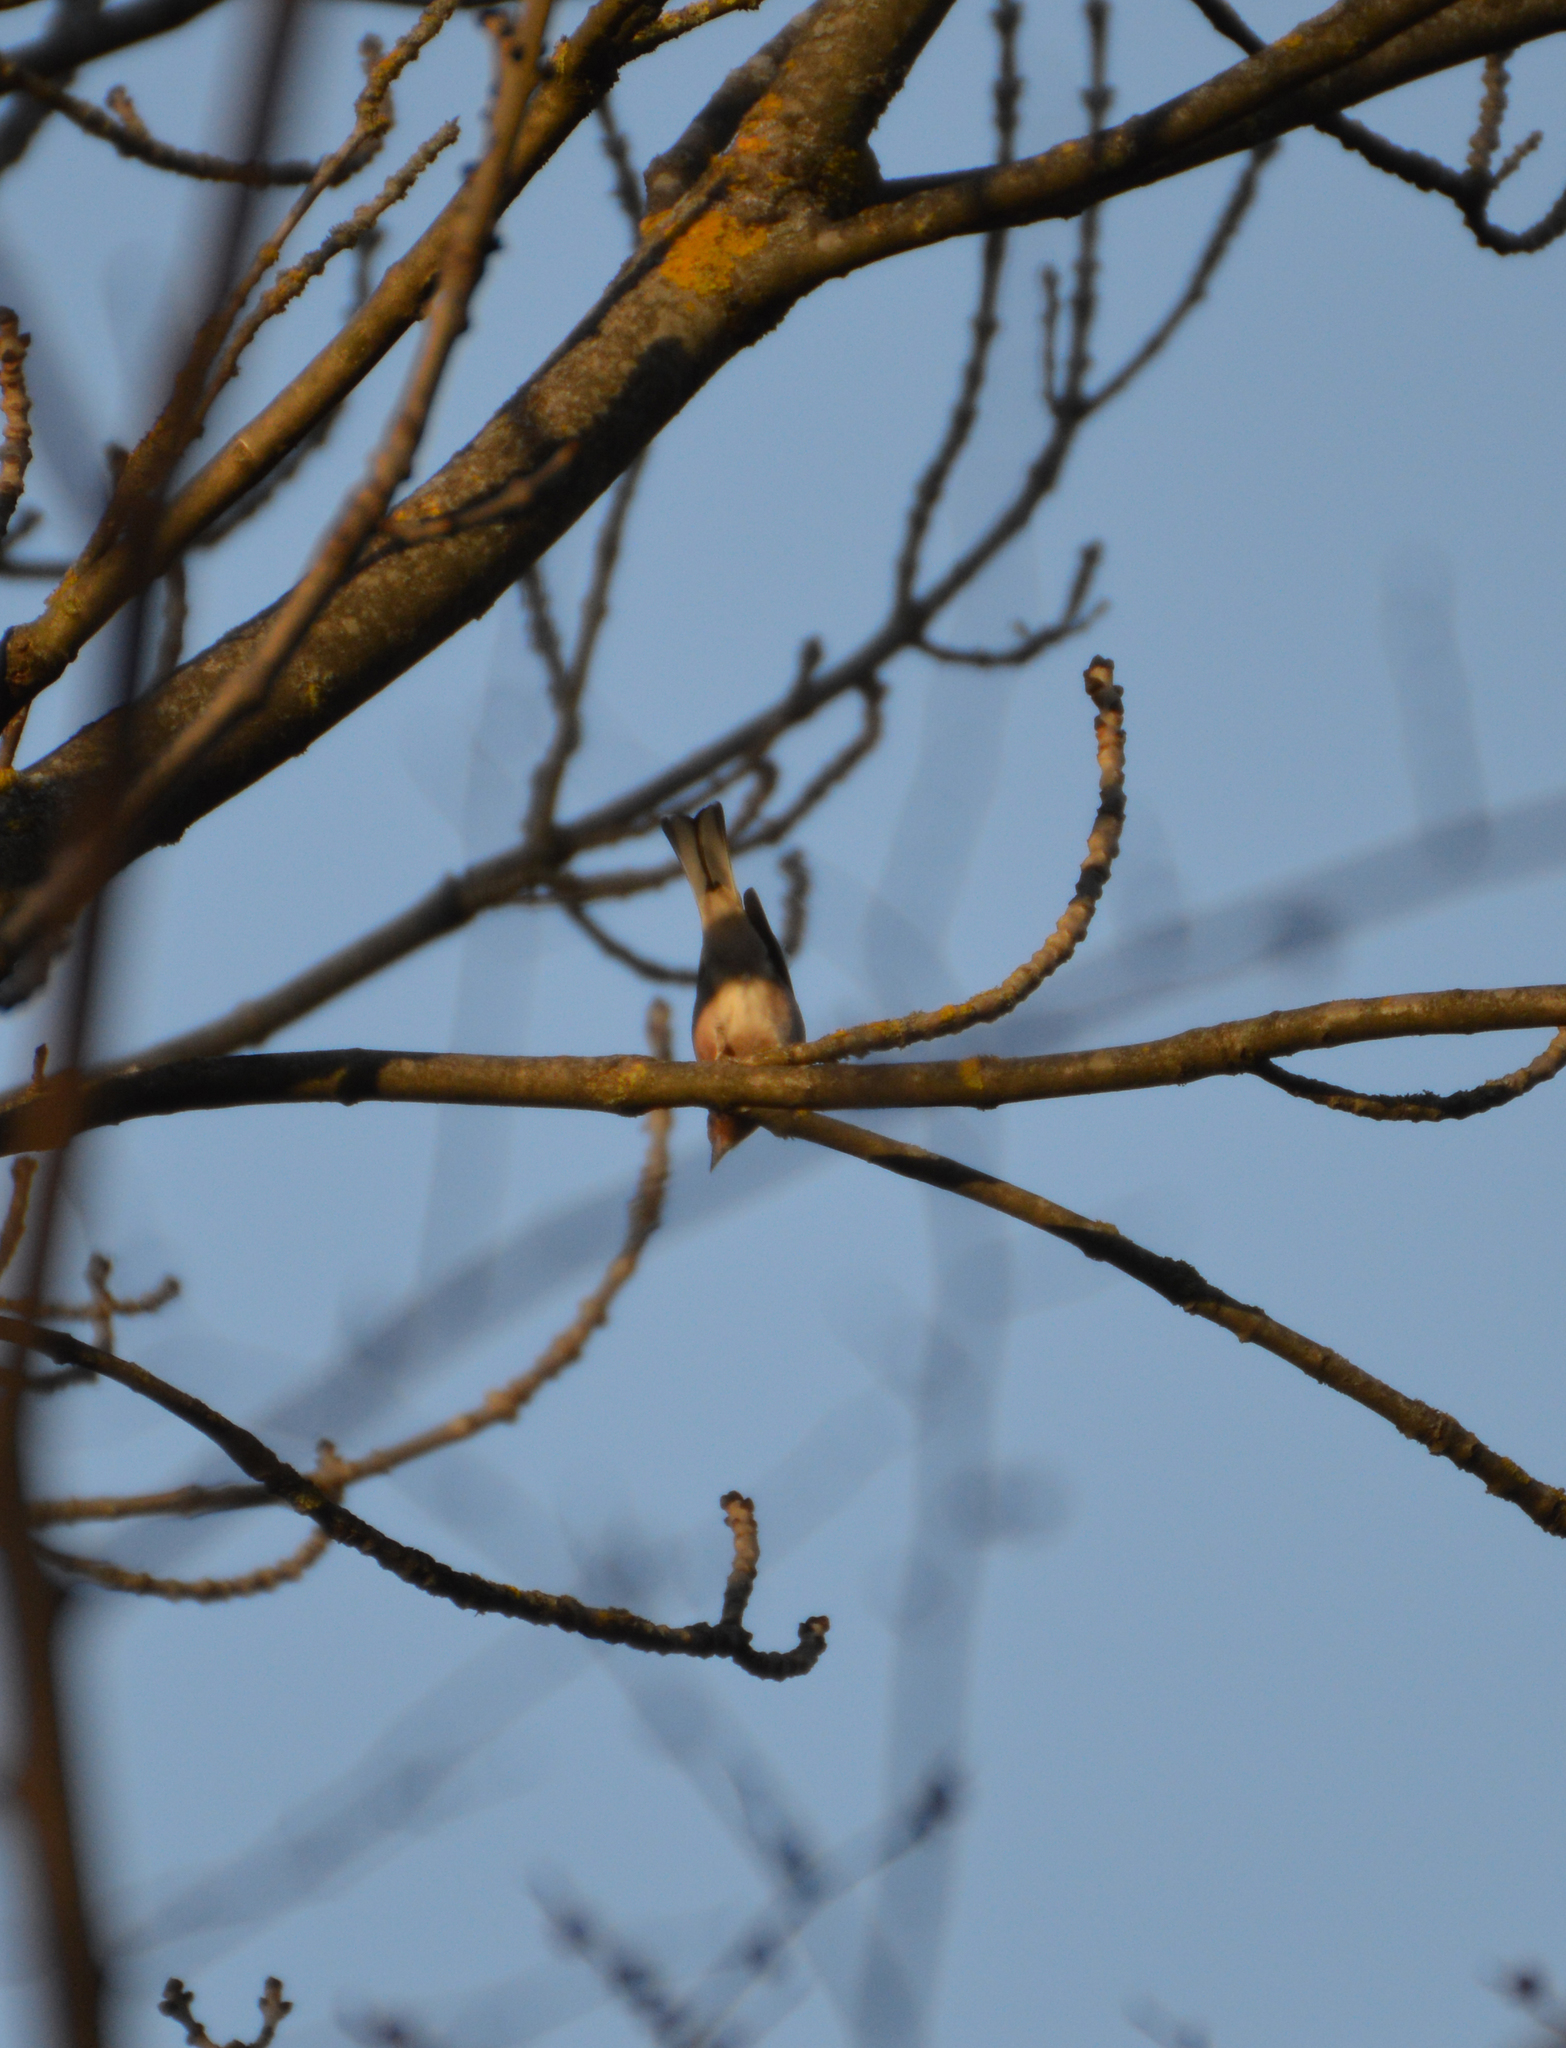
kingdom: Animalia
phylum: Chordata
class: Aves
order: Passeriformes
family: Fringillidae
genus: Fringilla
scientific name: Fringilla coelebs
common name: Common chaffinch
